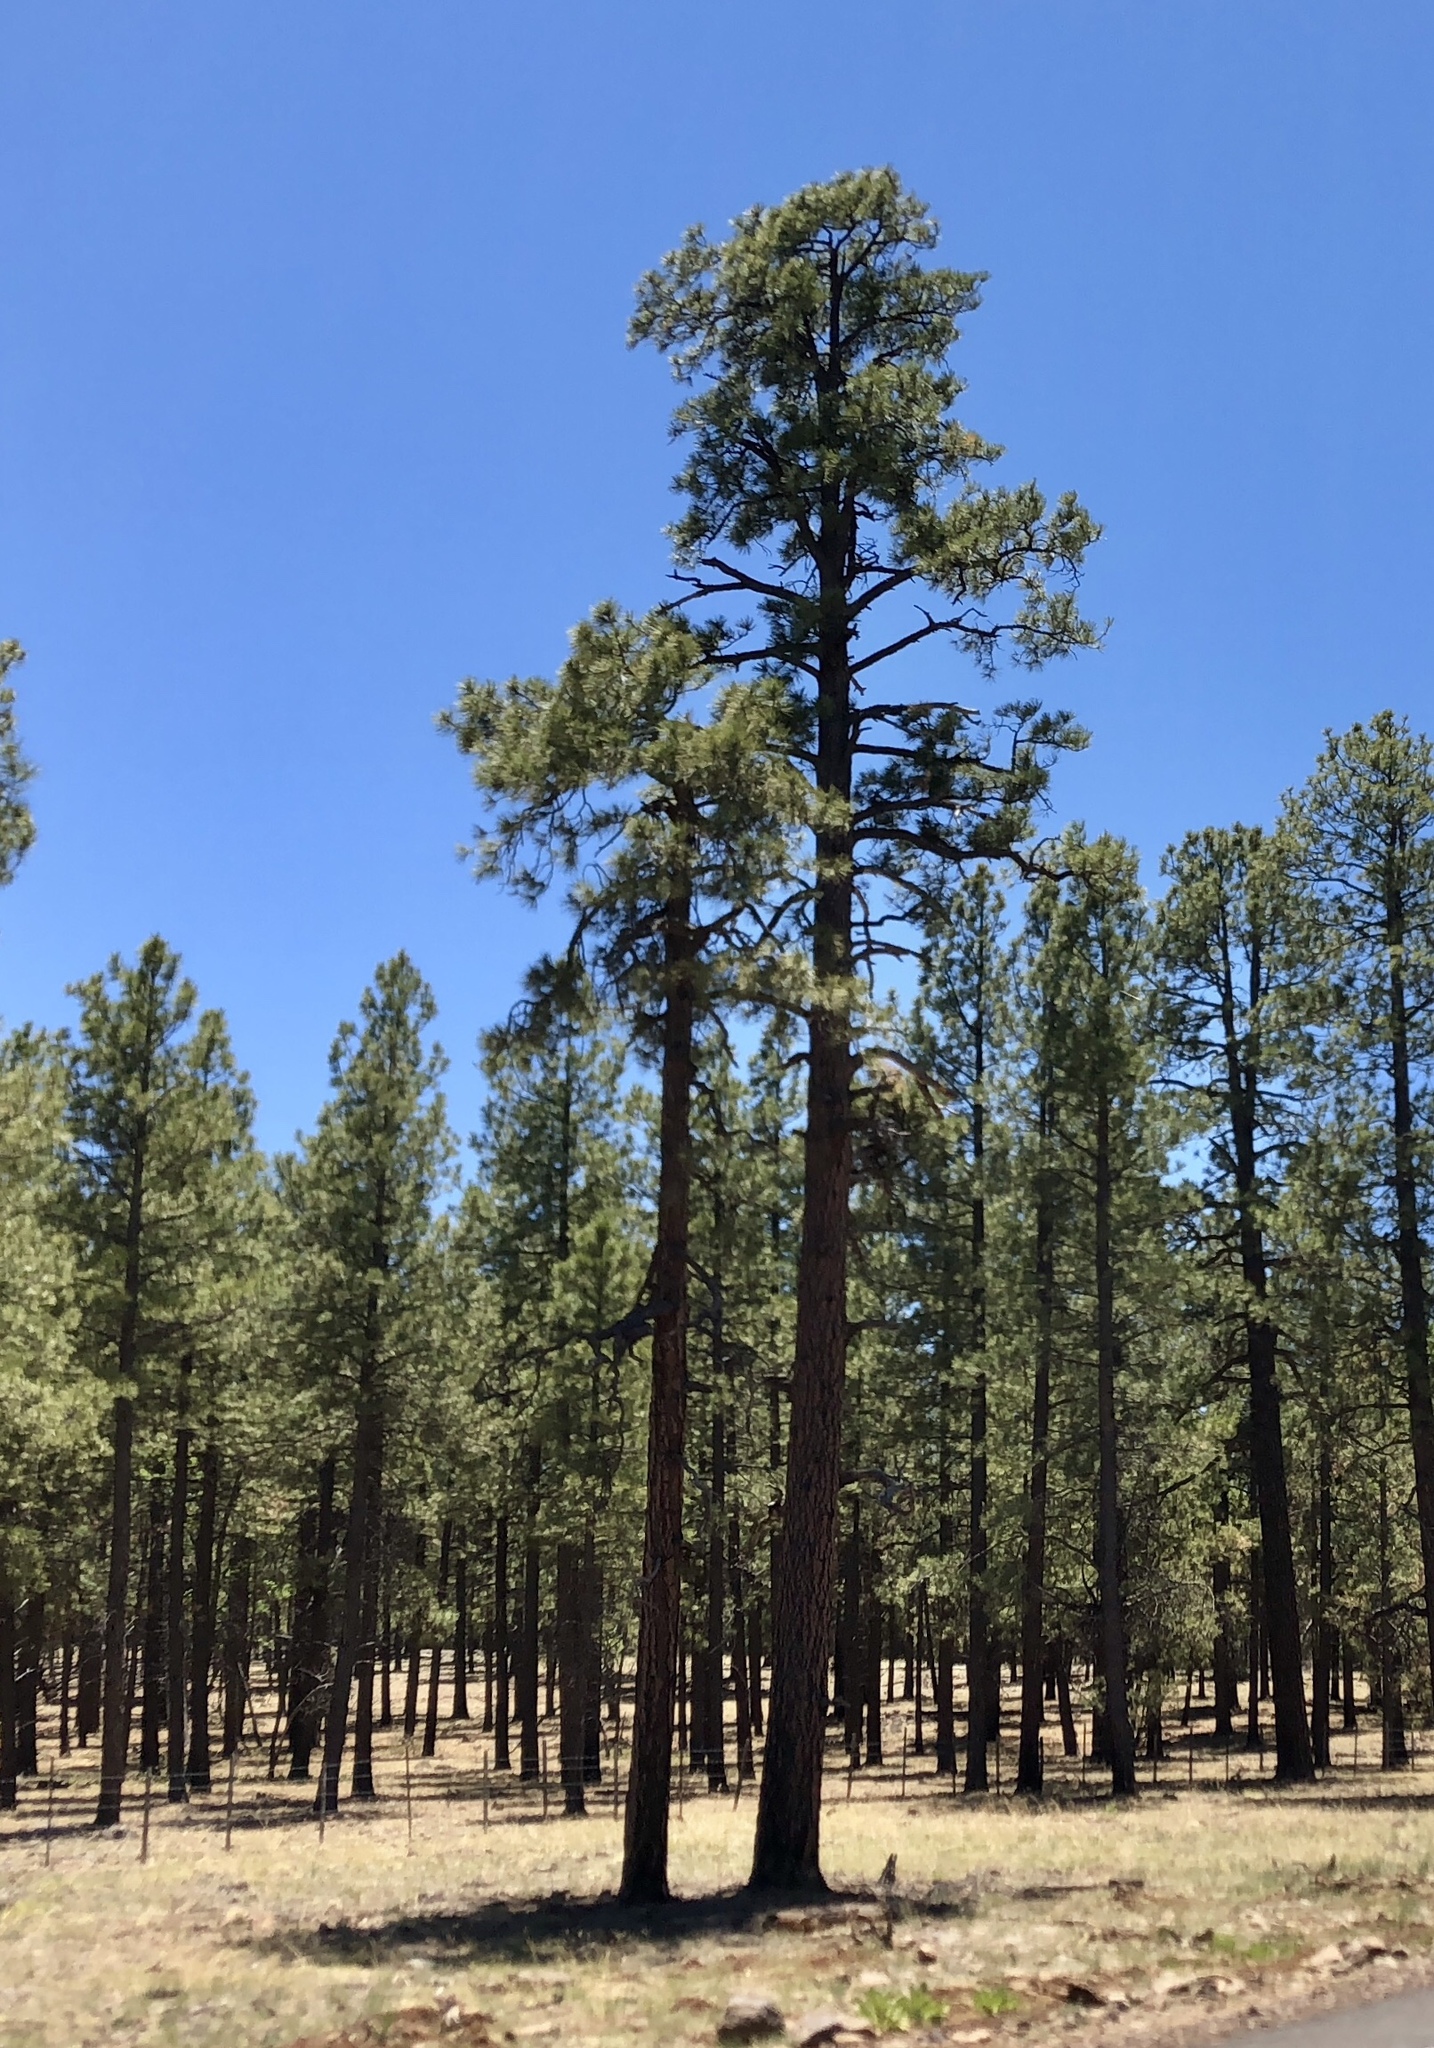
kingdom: Plantae
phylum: Tracheophyta
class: Pinopsida
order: Pinales
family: Pinaceae
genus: Pinus
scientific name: Pinus ponderosa
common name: Western yellow-pine
